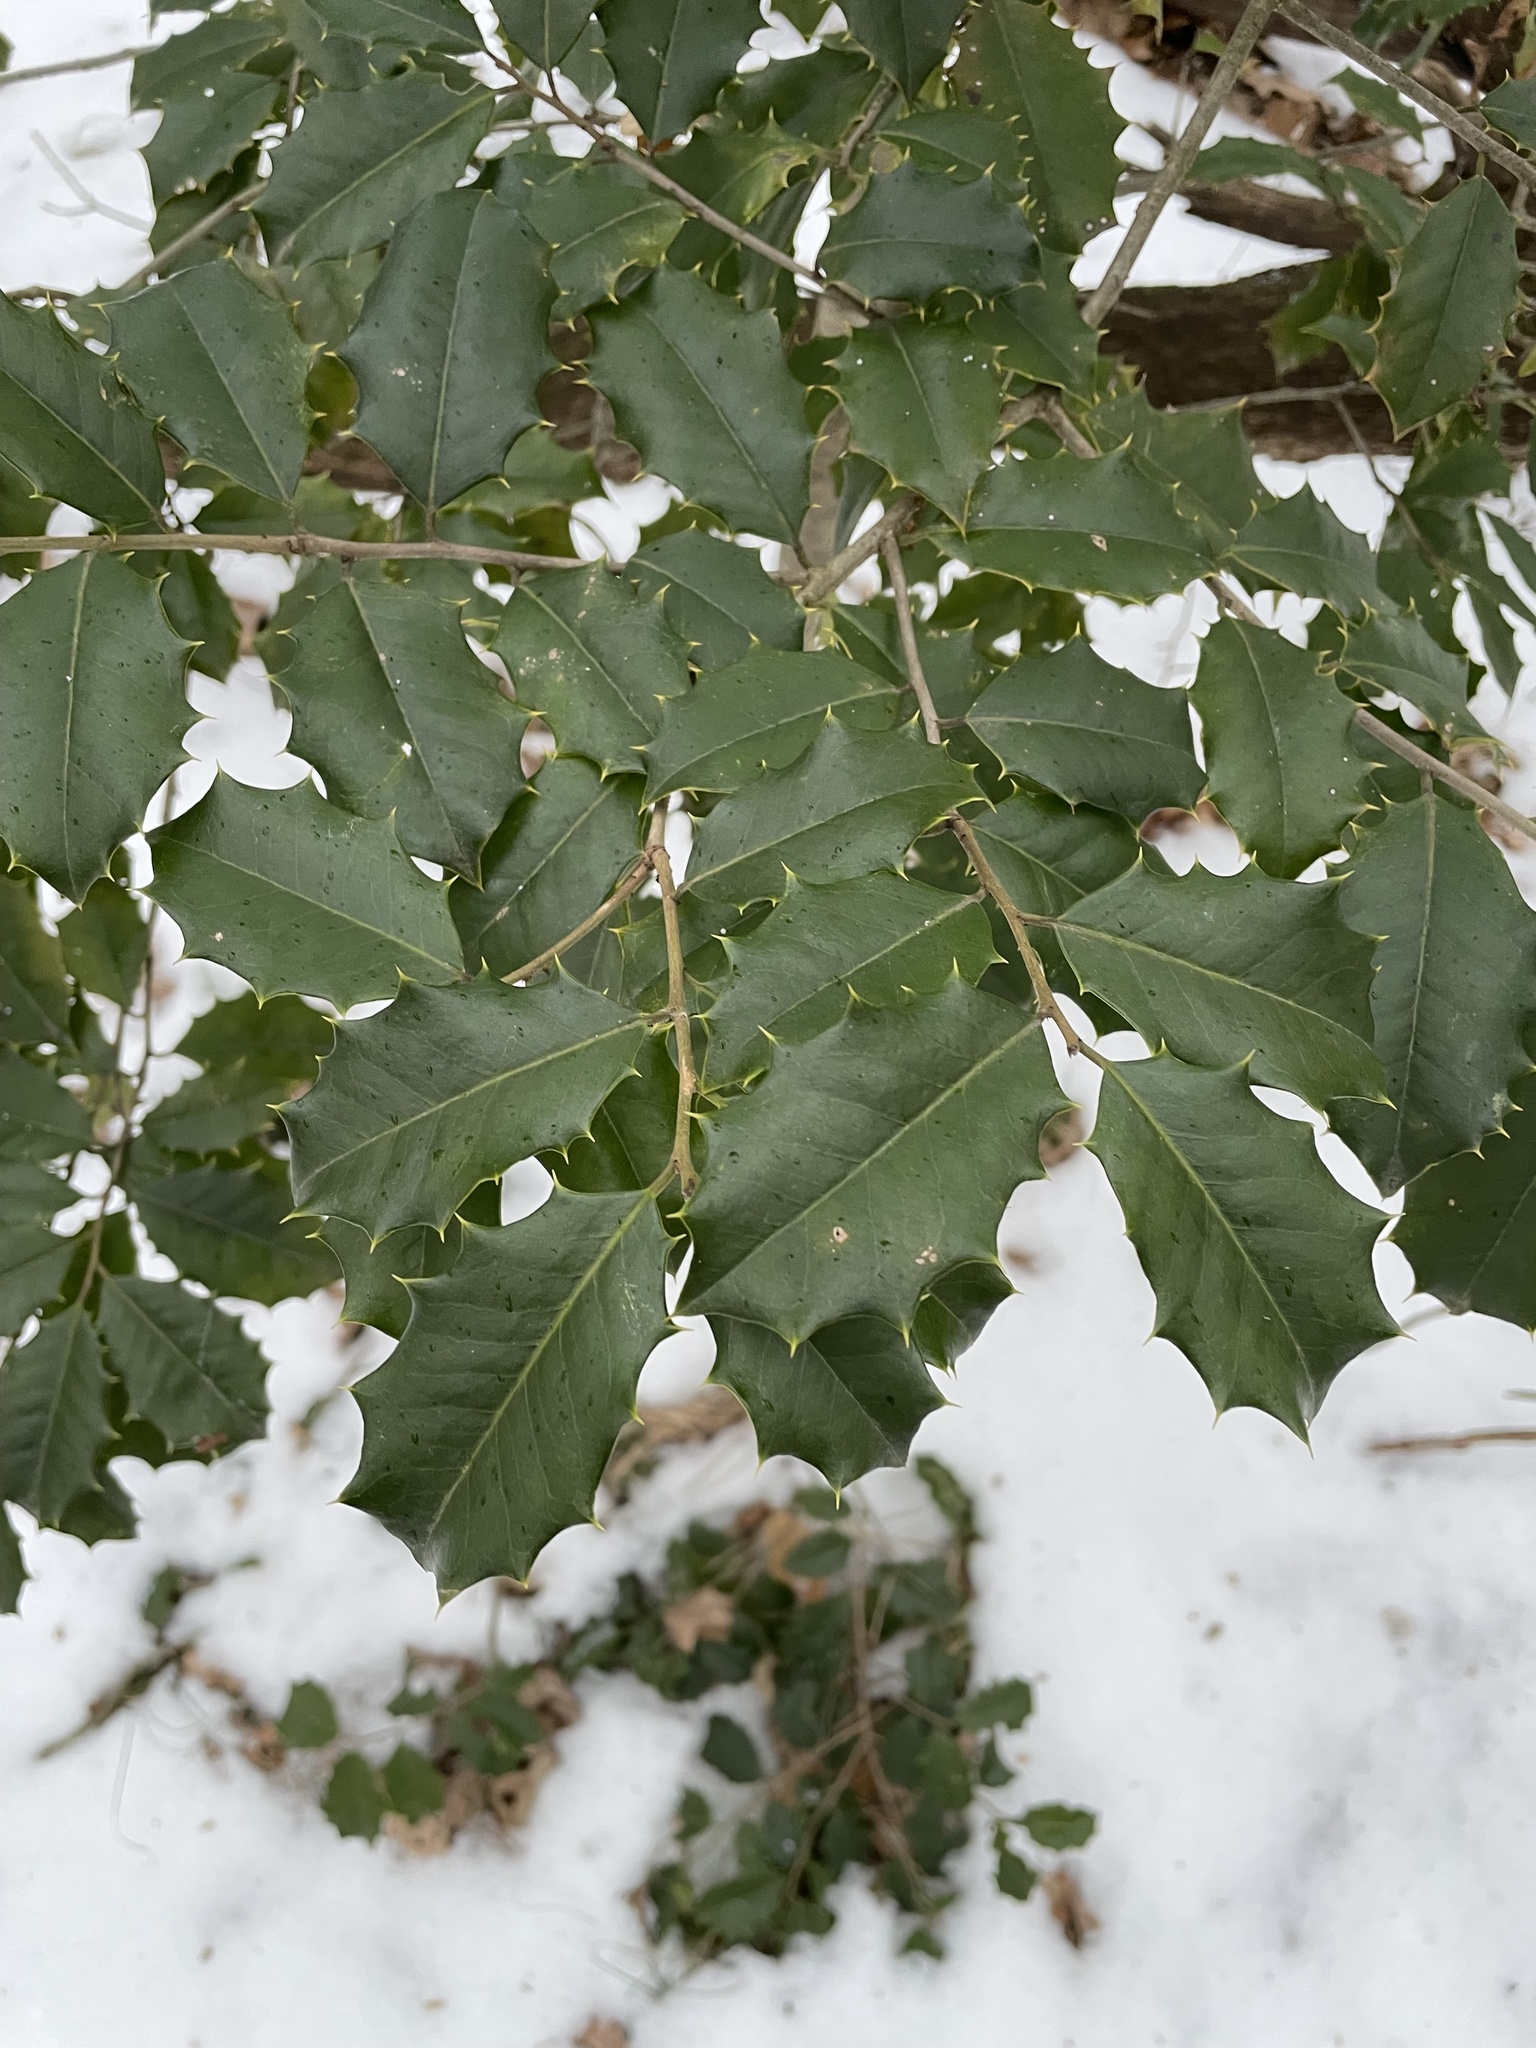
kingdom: Plantae
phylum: Tracheophyta
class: Magnoliopsida
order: Aquifoliales
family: Aquifoliaceae
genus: Ilex
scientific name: Ilex opaca
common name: American holly
